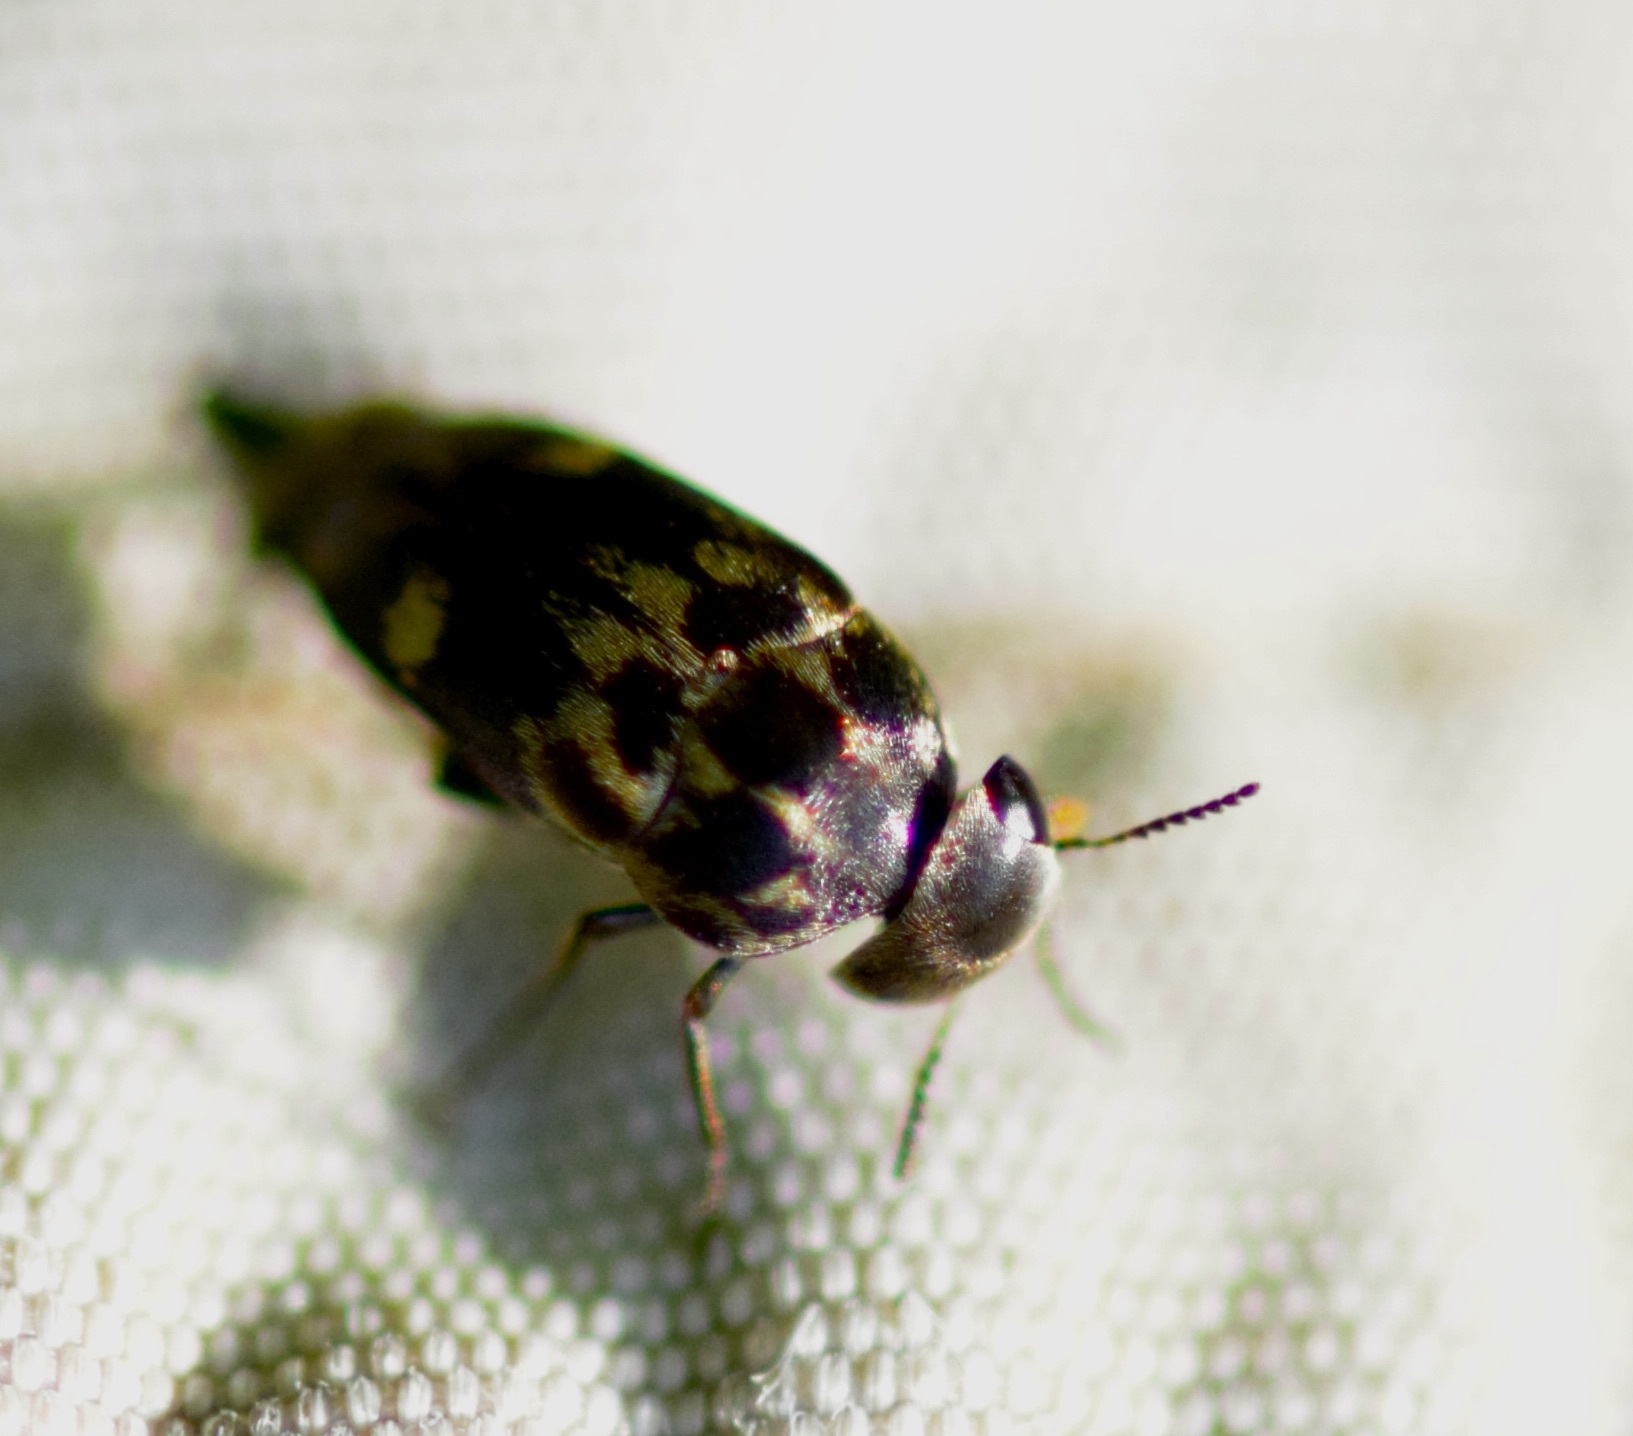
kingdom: Animalia
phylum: Arthropoda
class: Insecta
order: Coleoptera
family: Mordellidae
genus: Tomoxia
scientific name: Tomoxia inclusa
